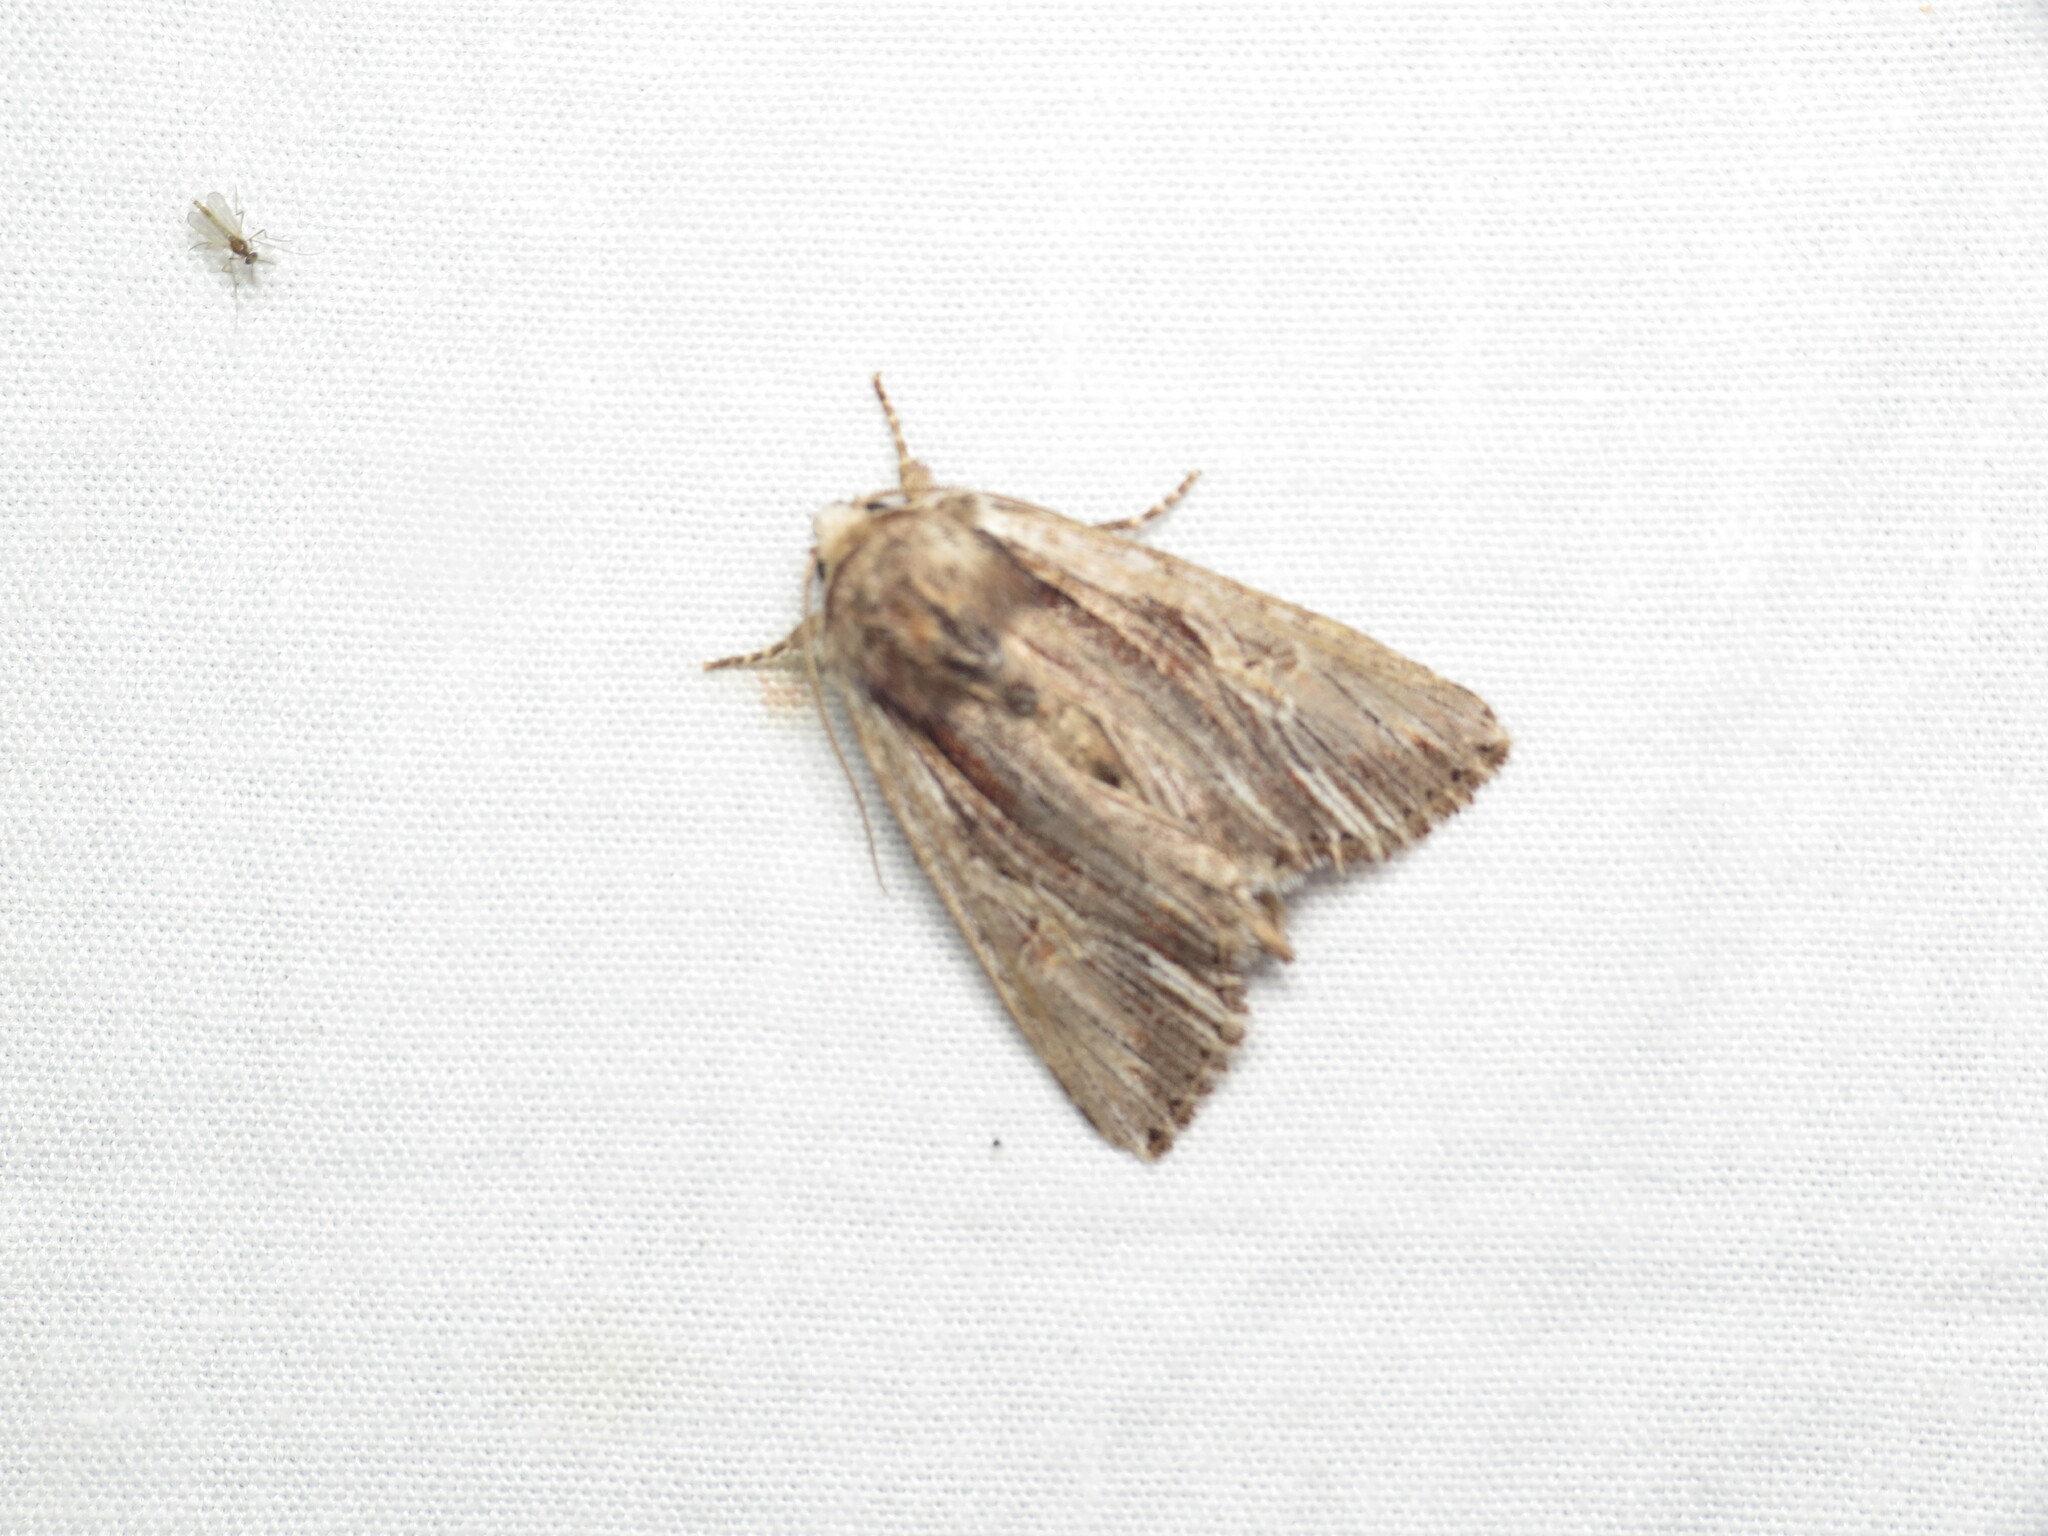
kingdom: Animalia
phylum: Arthropoda
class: Insecta
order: Lepidoptera
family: Noctuidae
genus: Achatia
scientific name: Achatia evicta
